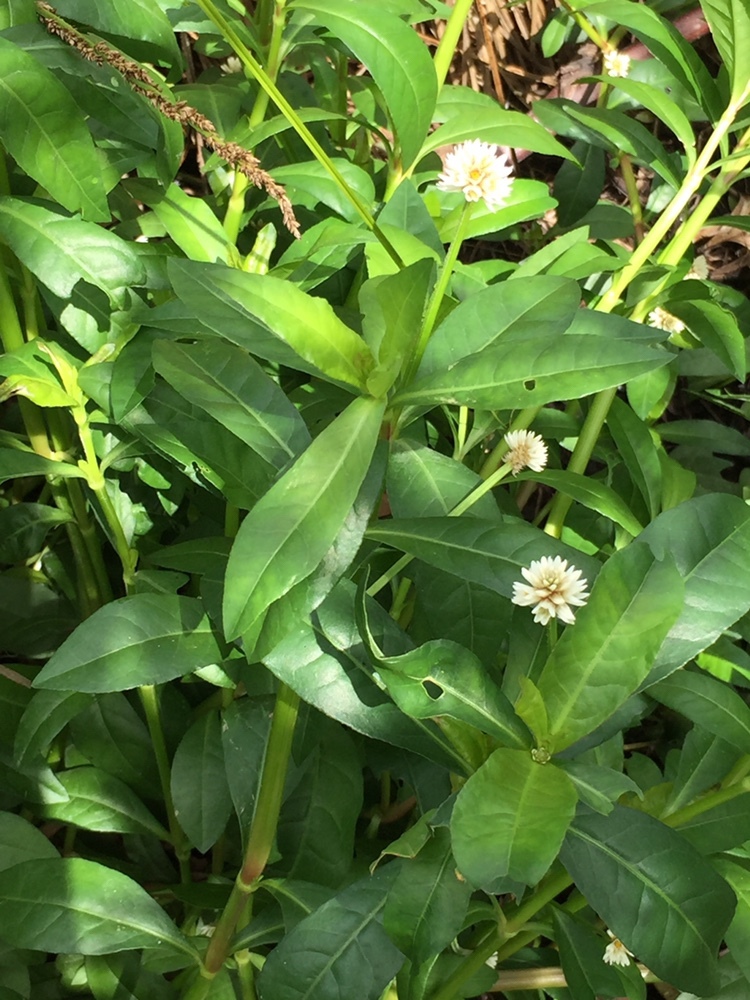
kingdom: Plantae
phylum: Tracheophyta
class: Magnoliopsida
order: Caryophyllales
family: Amaranthaceae
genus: Alternanthera
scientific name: Alternanthera philoxeroides
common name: Alligatorweed
